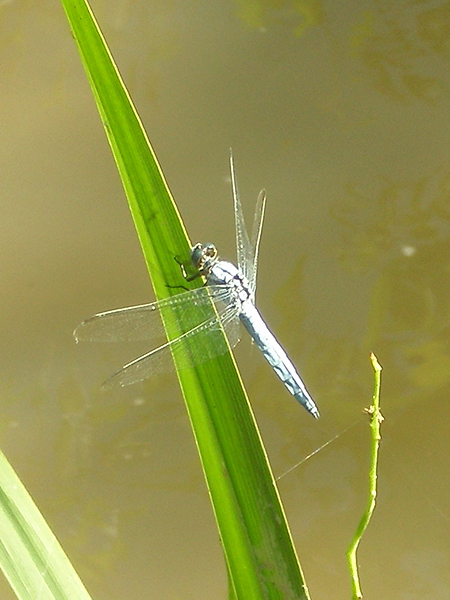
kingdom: Animalia
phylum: Arthropoda
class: Insecta
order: Odonata
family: Libellulidae
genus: Orthetrum
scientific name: Orthetrum brunneum
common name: Southern skimmer
